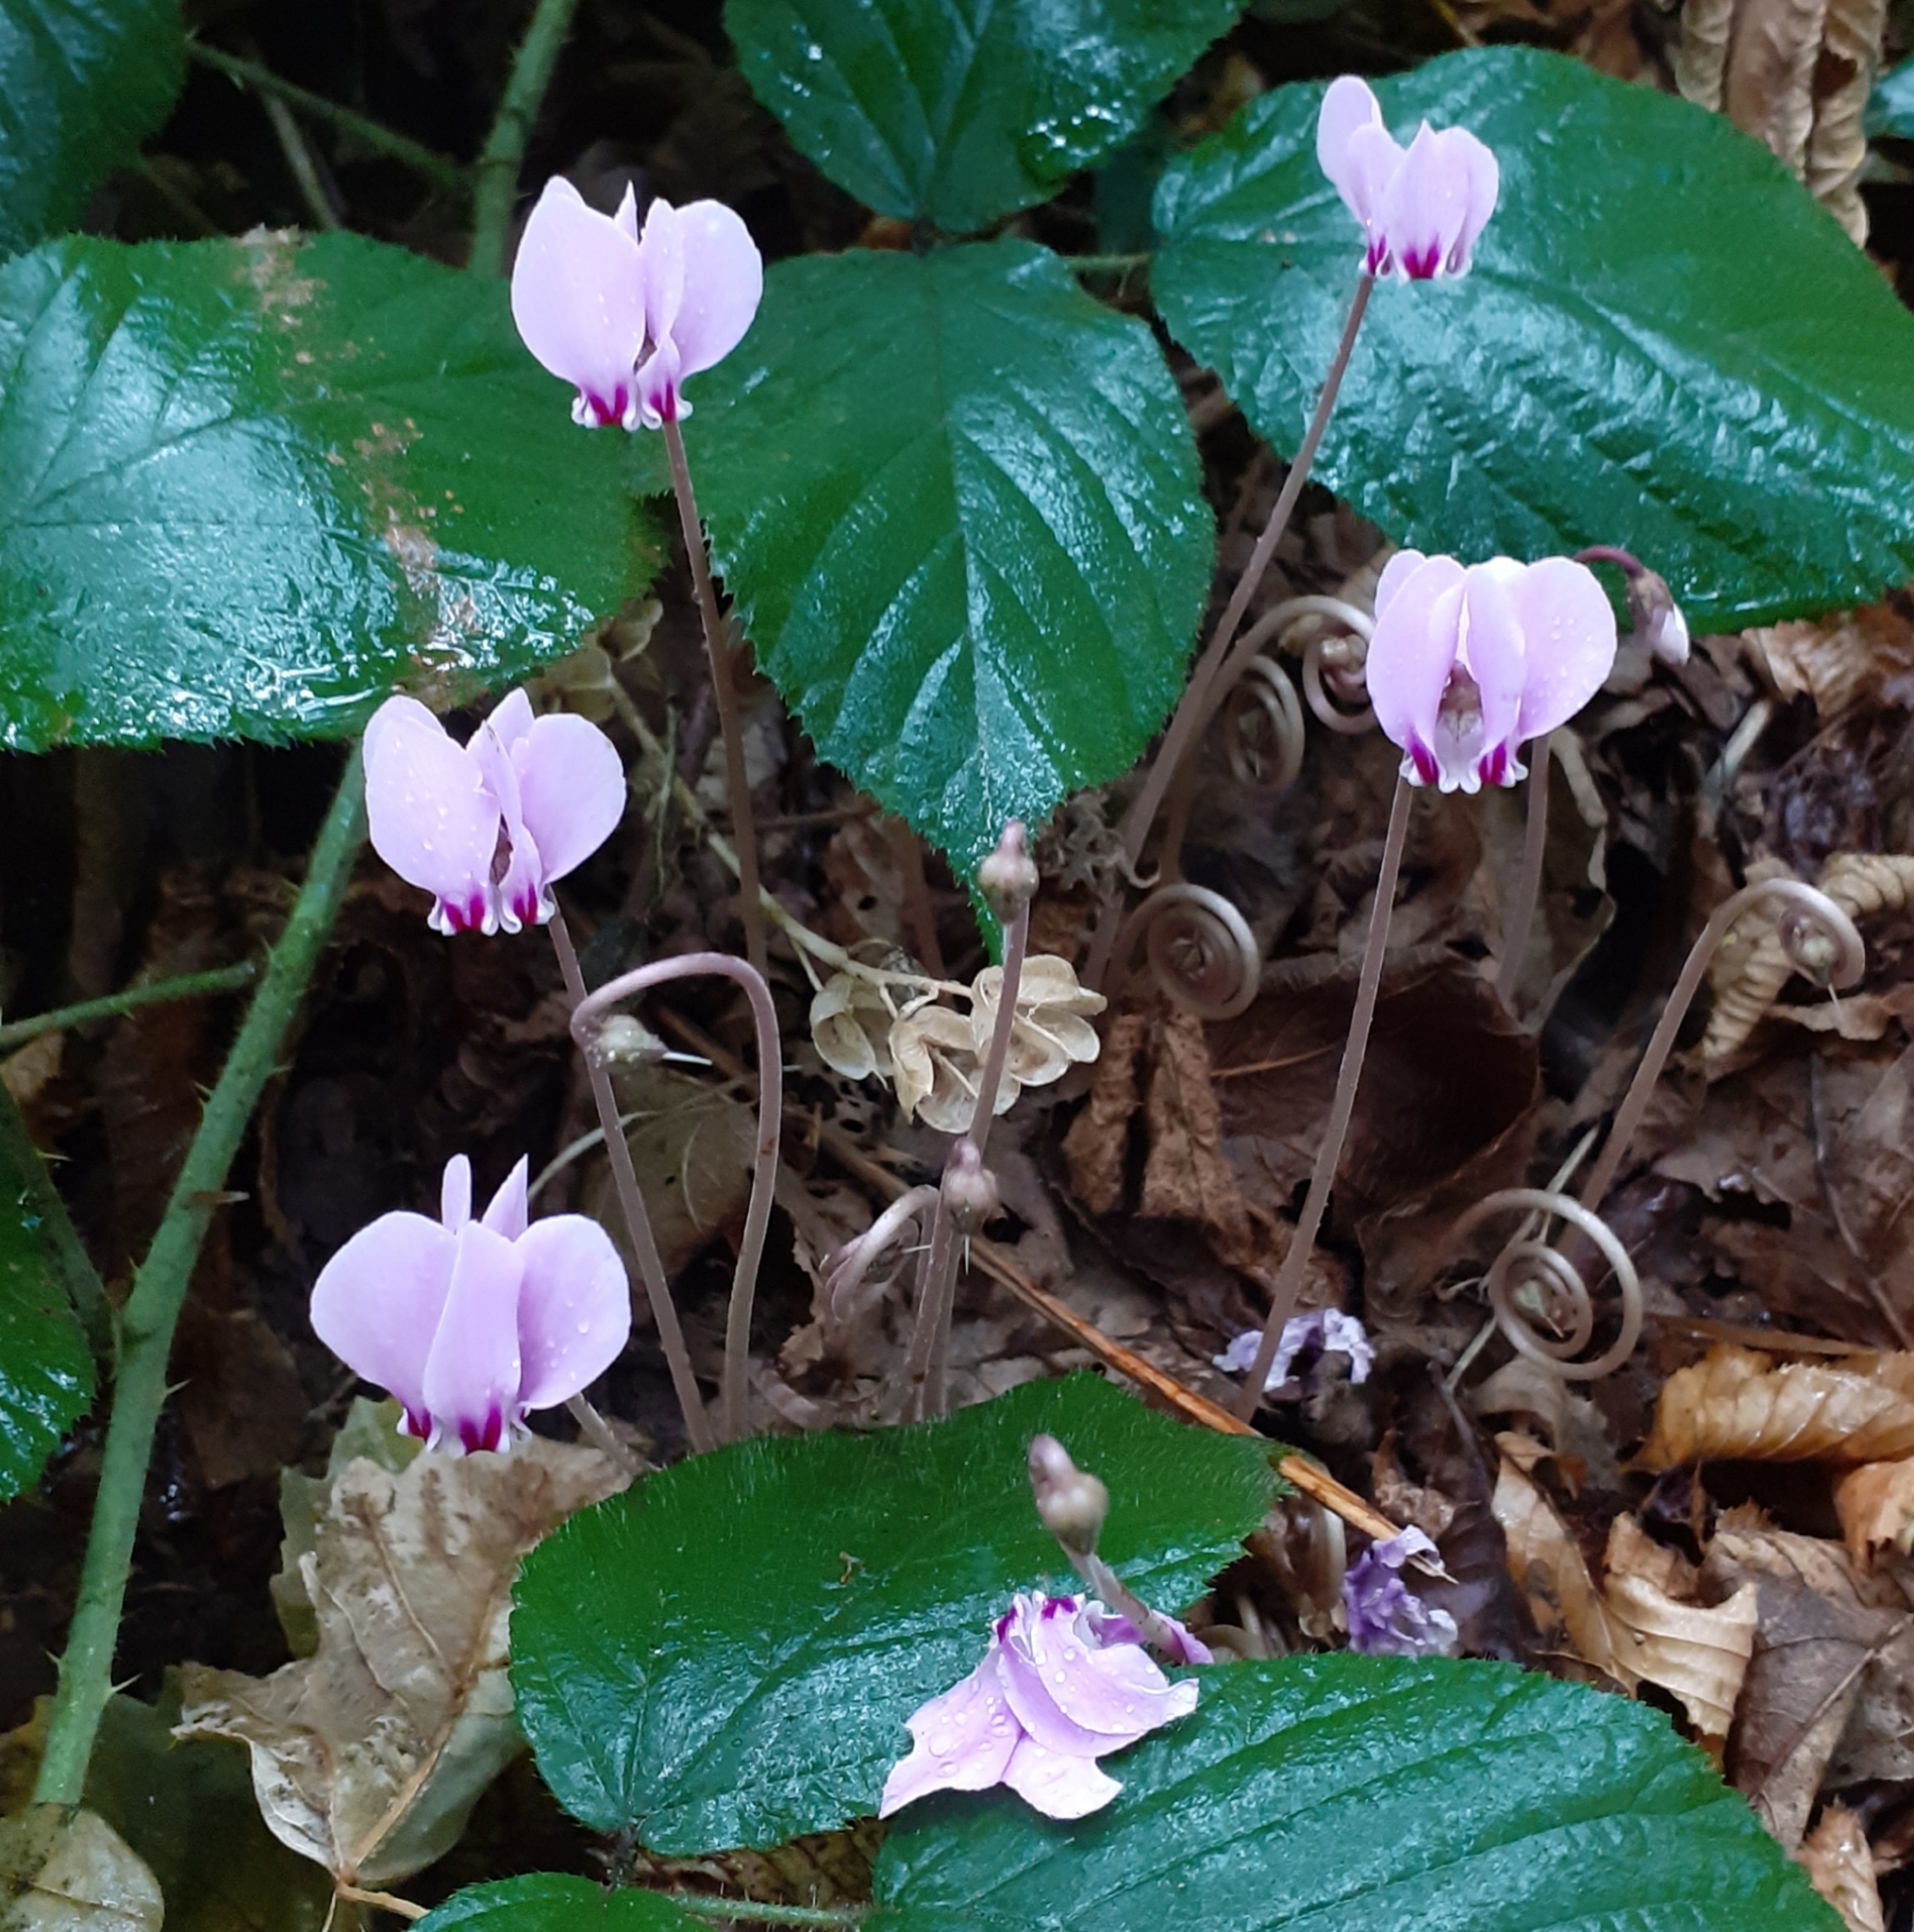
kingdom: Plantae
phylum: Tracheophyta
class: Magnoliopsida
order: Ericales
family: Primulaceae
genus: Cyclamen
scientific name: Cyclamen hederifolium
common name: Sowbread
